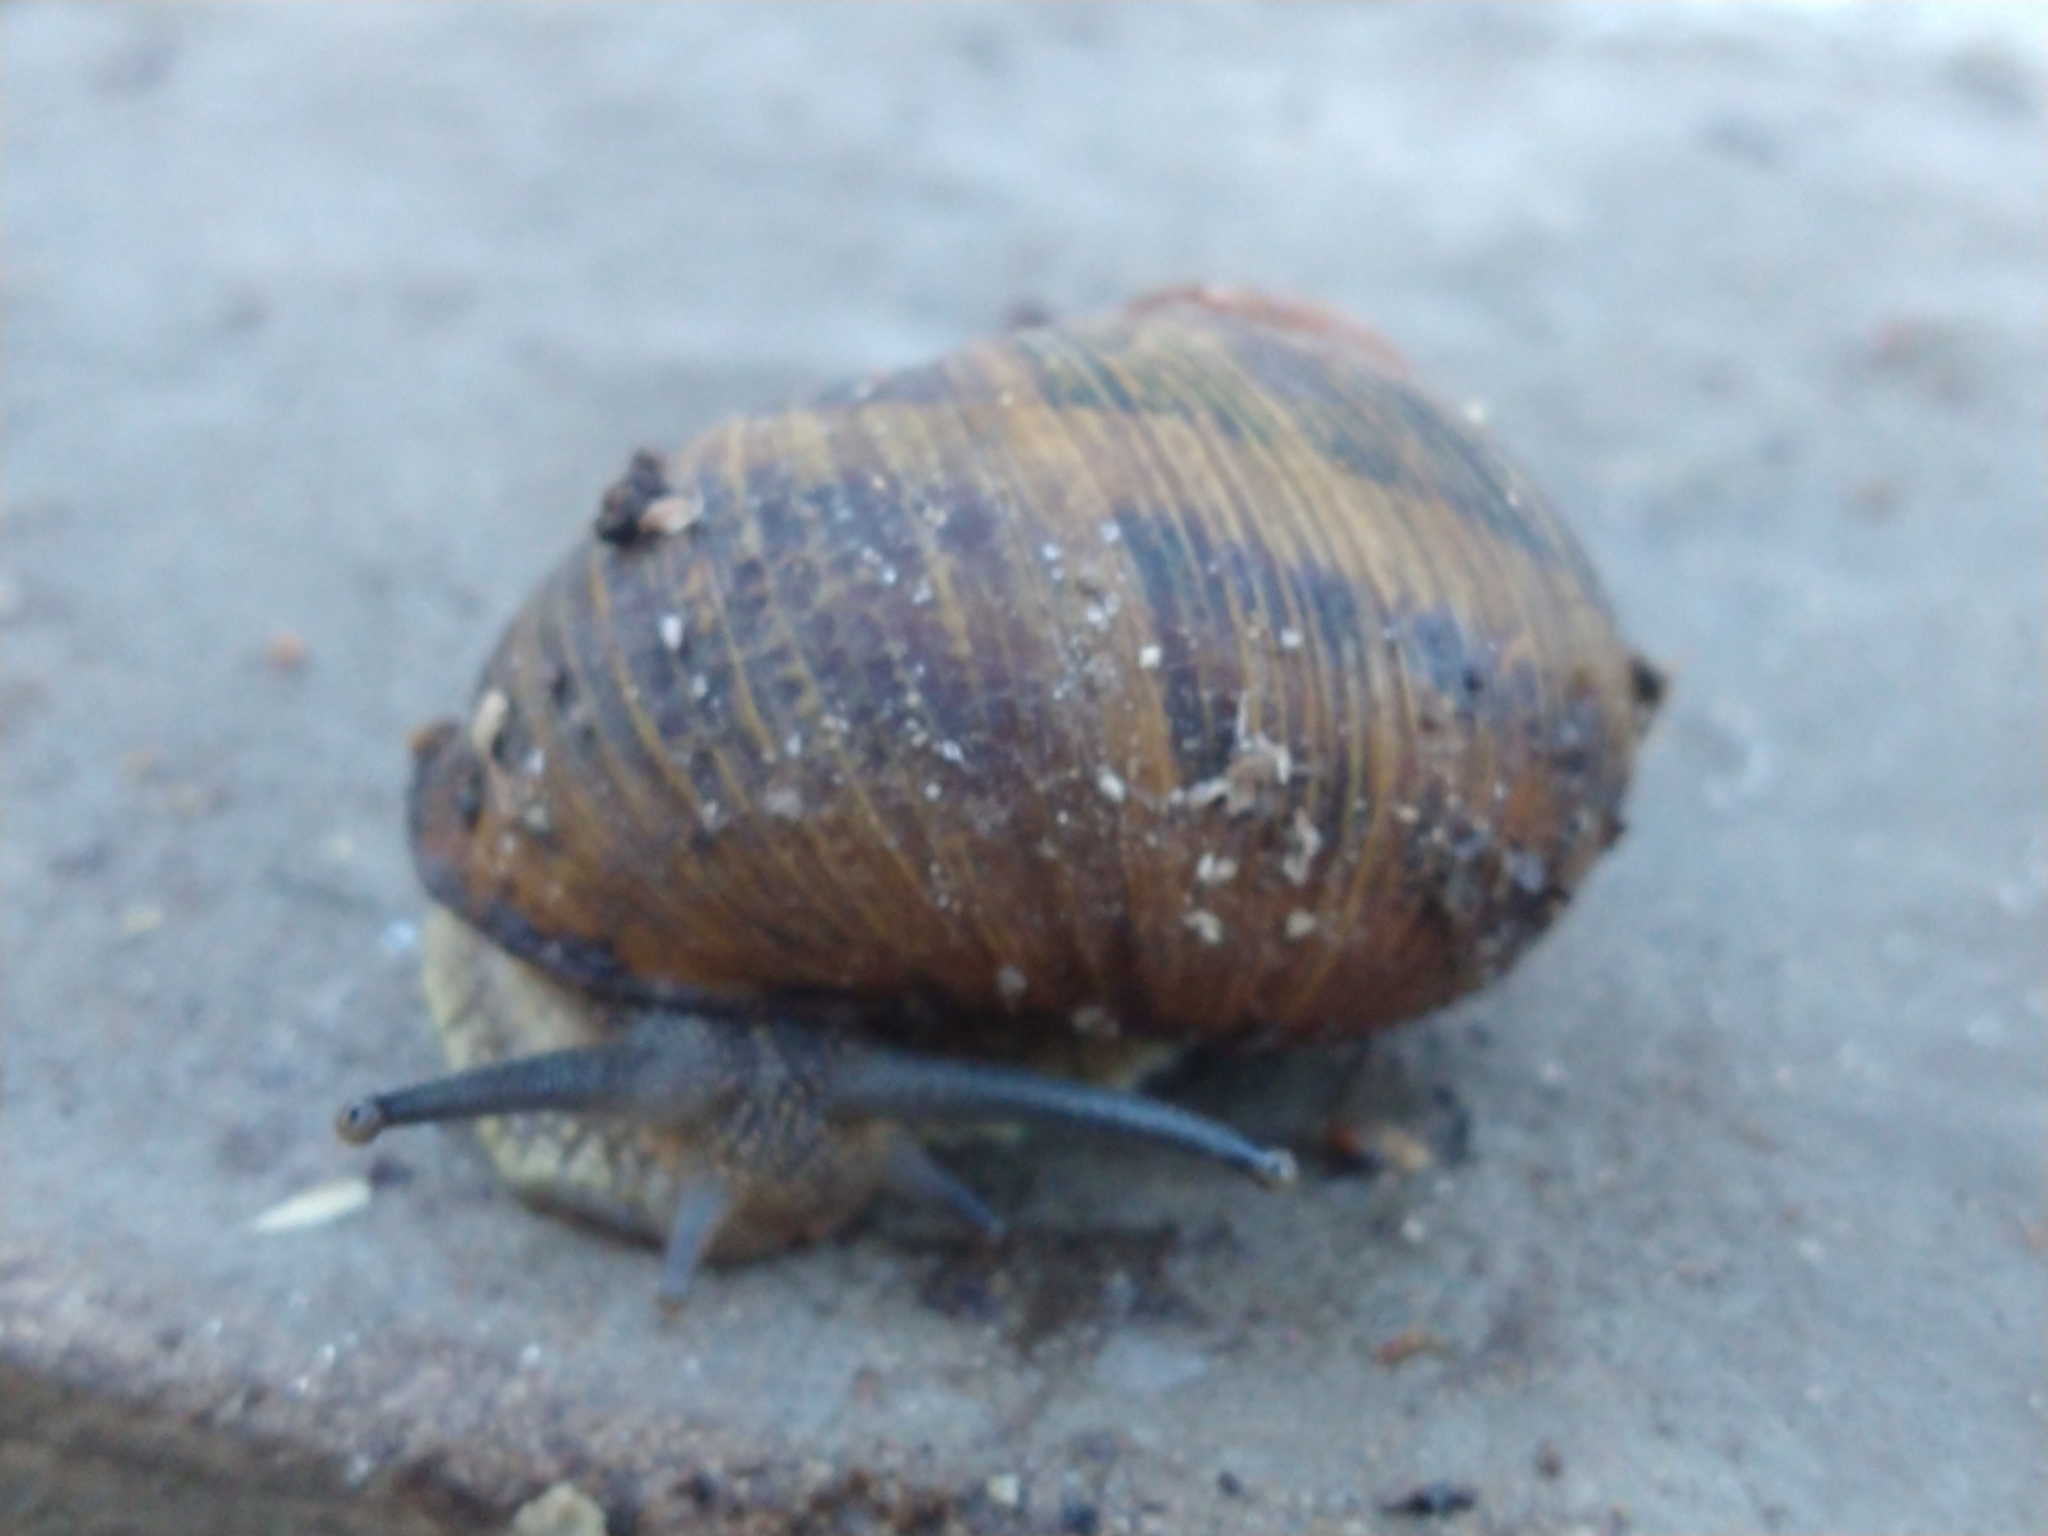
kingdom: Animalia
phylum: Mollusca
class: Gastropoda
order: Stylommatophora
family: Helicidae
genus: Cornu
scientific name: Cornu aspersum
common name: Brown garden snail
